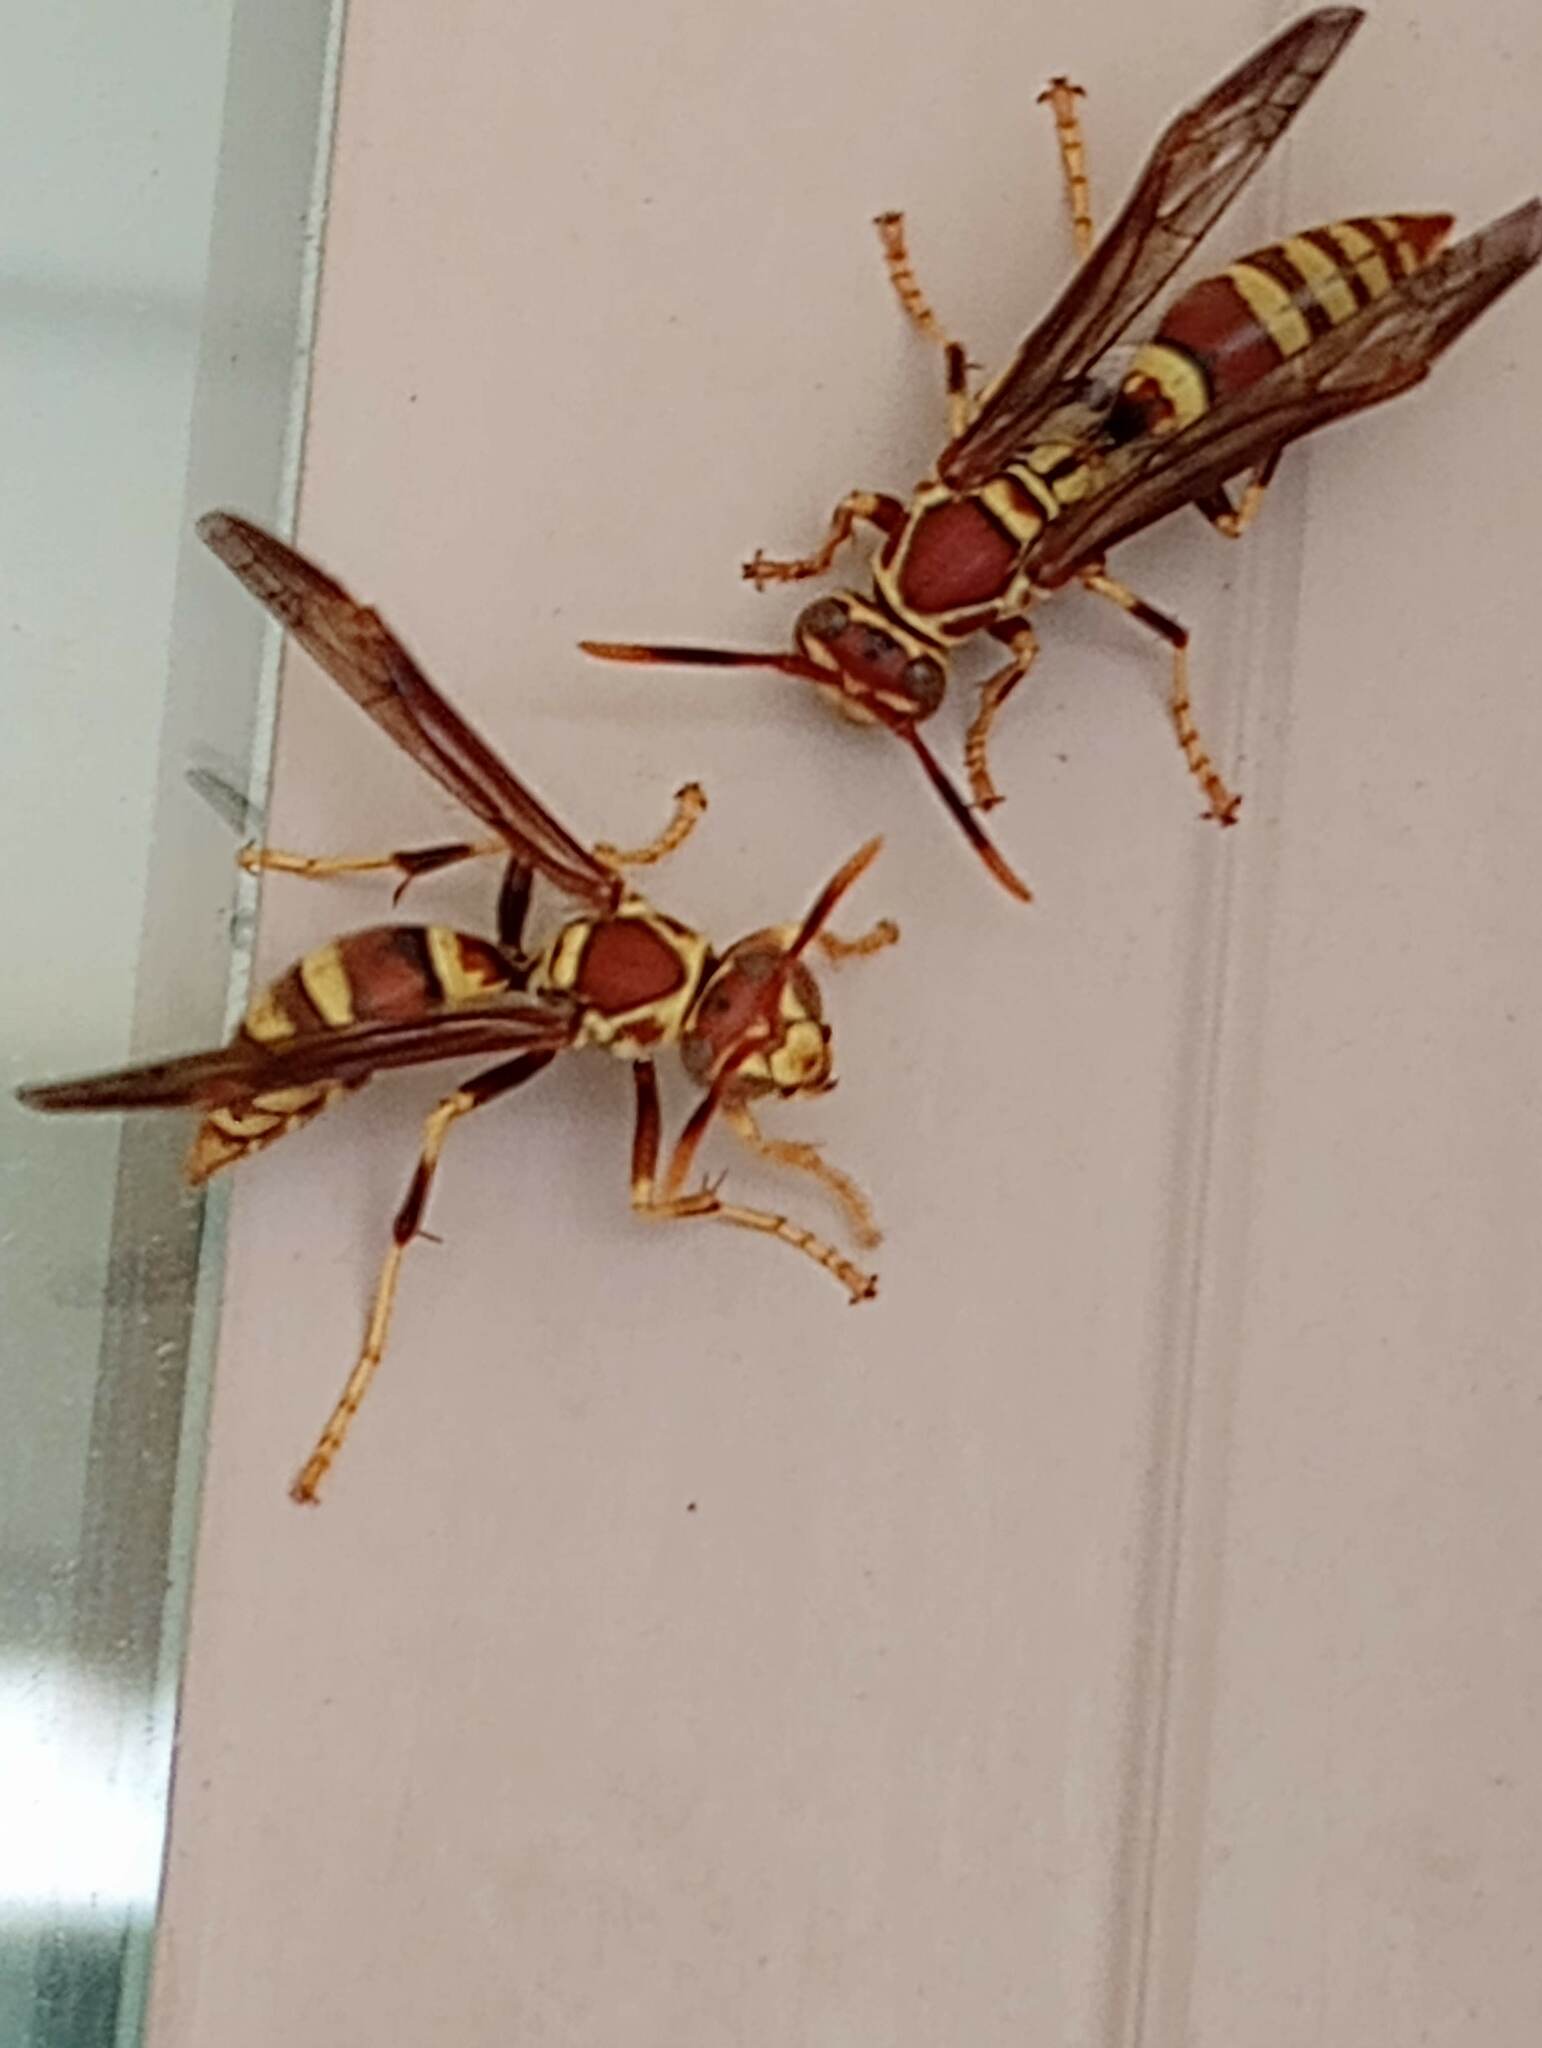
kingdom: Animalia
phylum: Arthropoda
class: Insecta
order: Hymenoptera
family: Eumenidae
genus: Polistes
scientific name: Polistes exclamans
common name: Paper wasp
